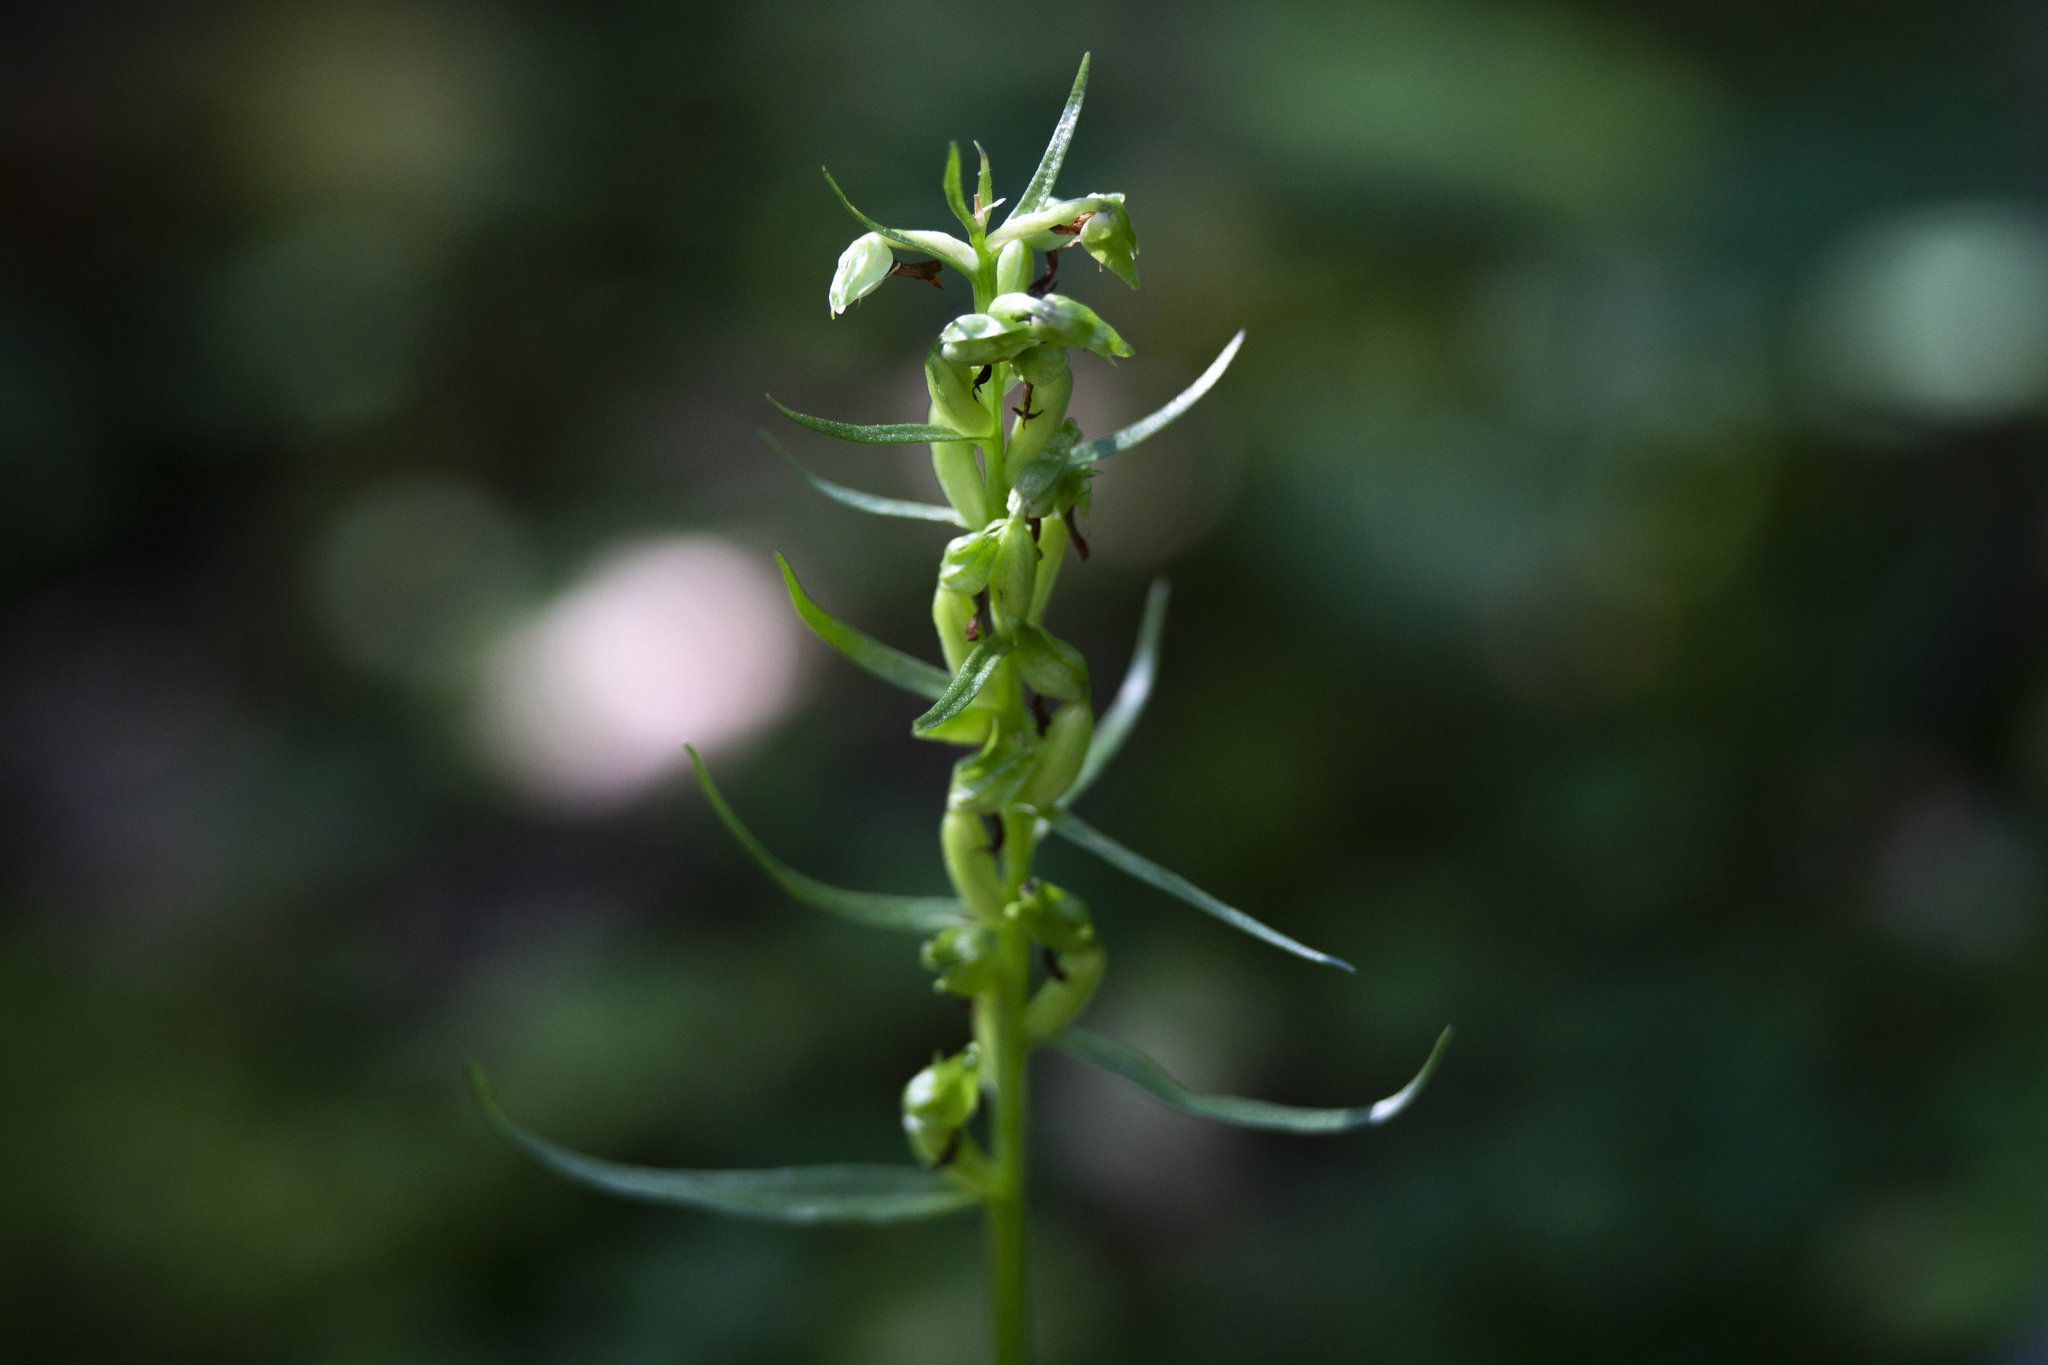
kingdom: Plantae
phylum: Tracheophyta
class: Liliopsida
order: Asparagales
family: Orchidaceae
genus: Dactylorhiza
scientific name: Dactylorhiza viridis
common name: Longbract frog orchid
